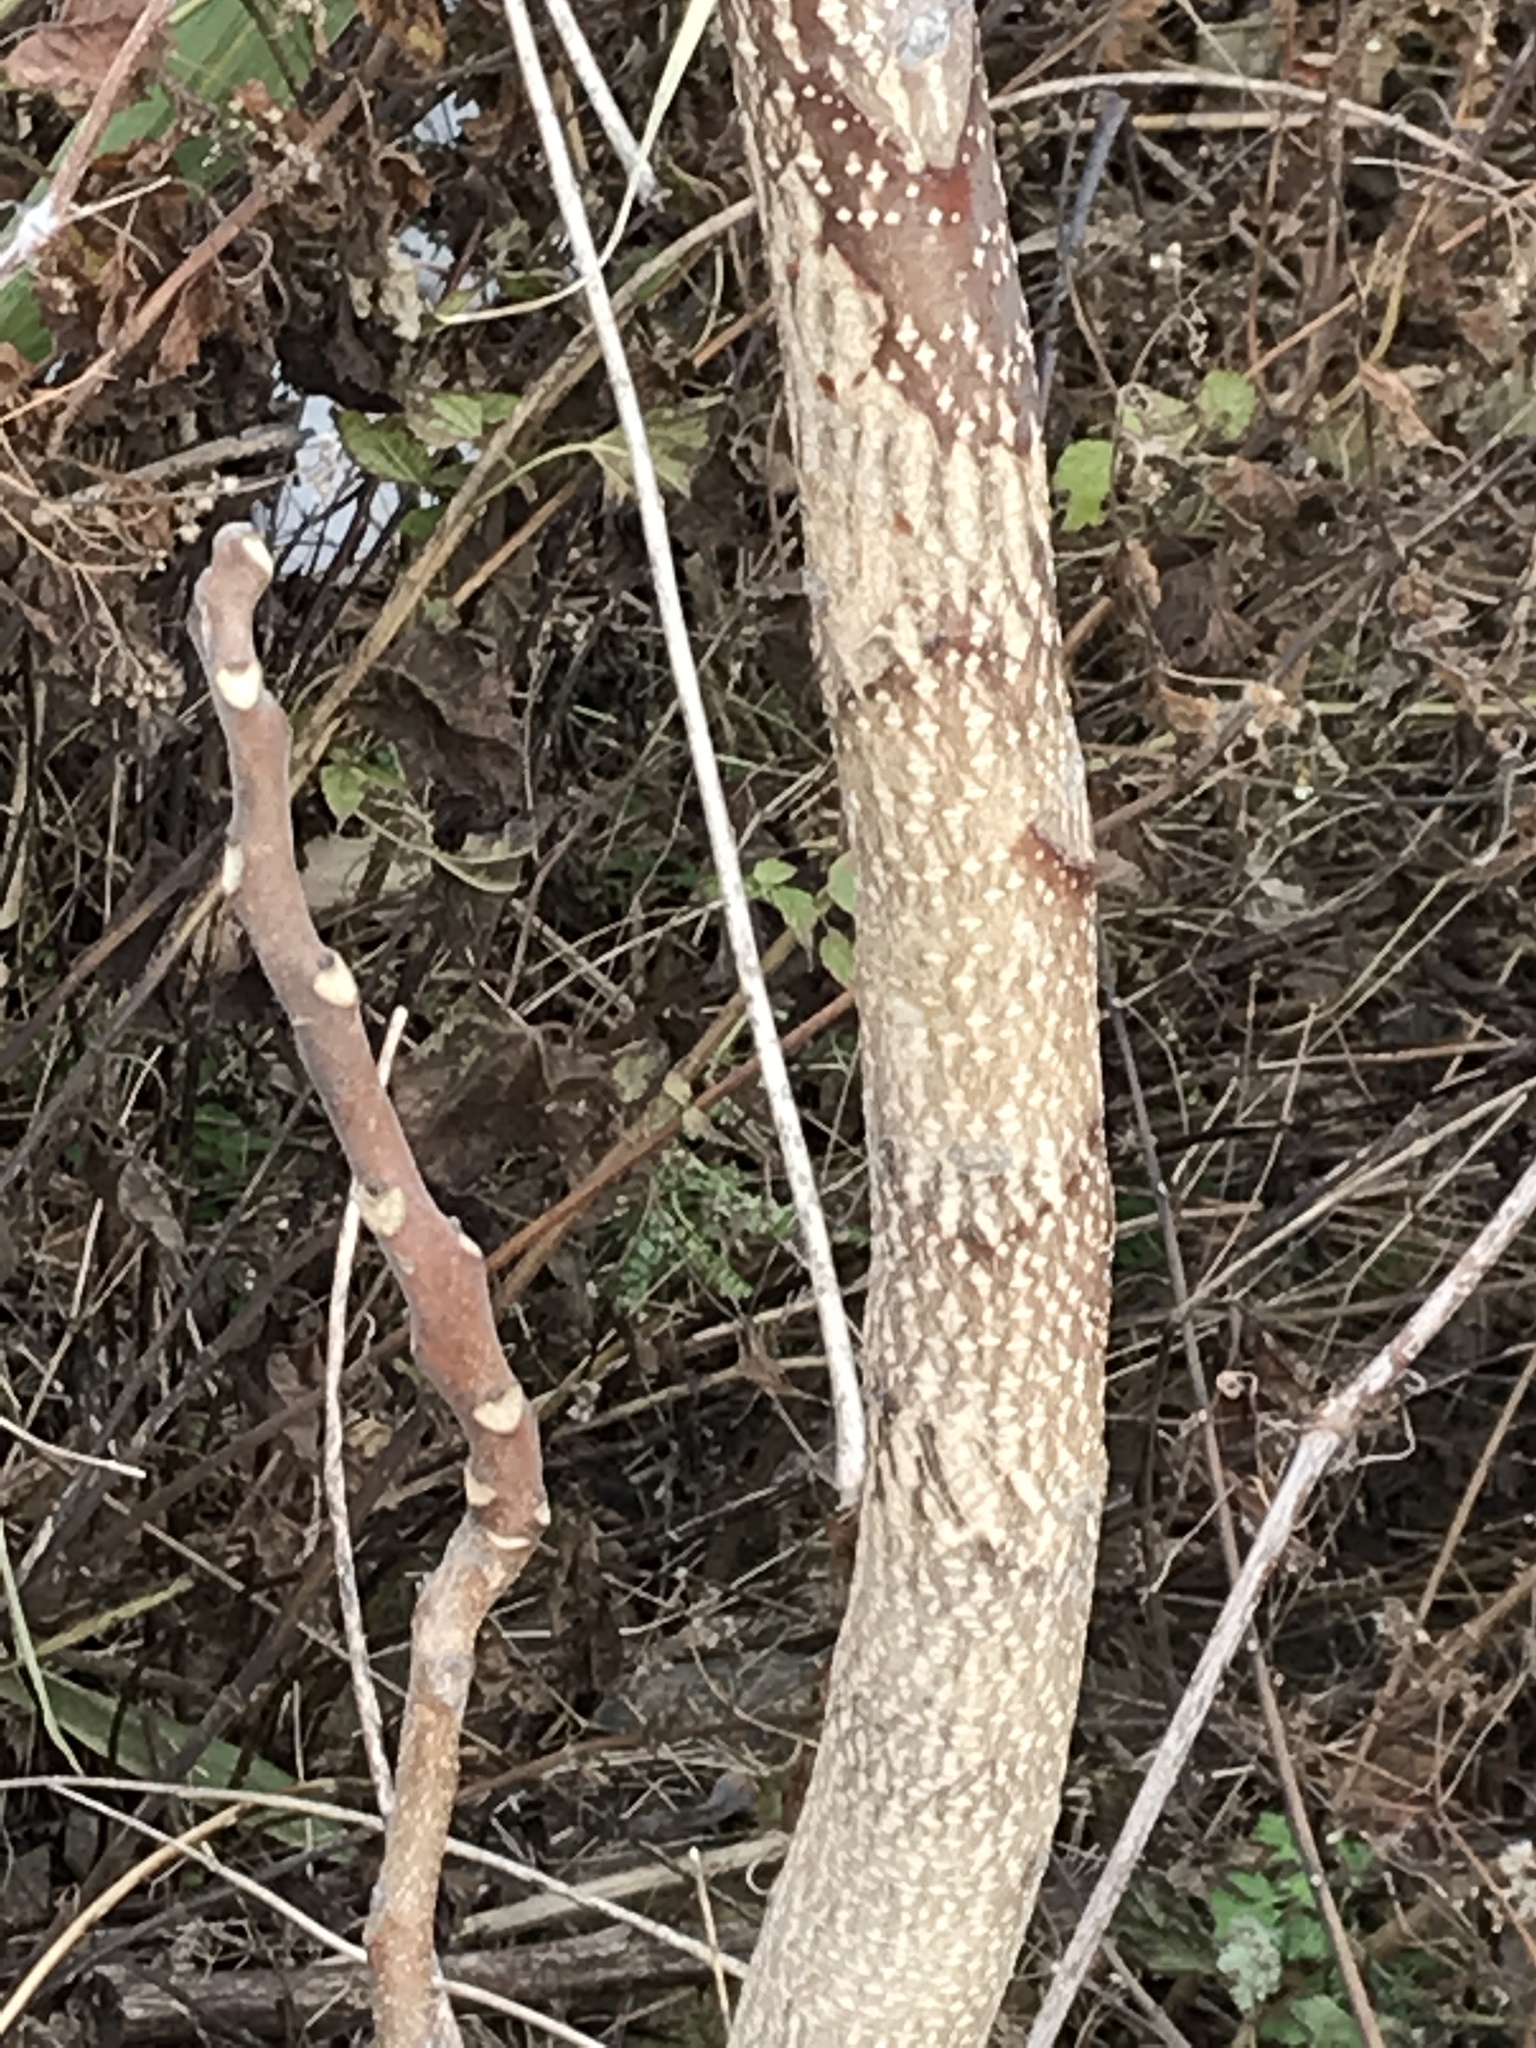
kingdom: Plantae
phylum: Tracheophyta
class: Magnoliopsida
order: Sapindales
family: Anacardiaceae
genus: Rhus
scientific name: Rhus glabra
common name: Scarlet sumac
